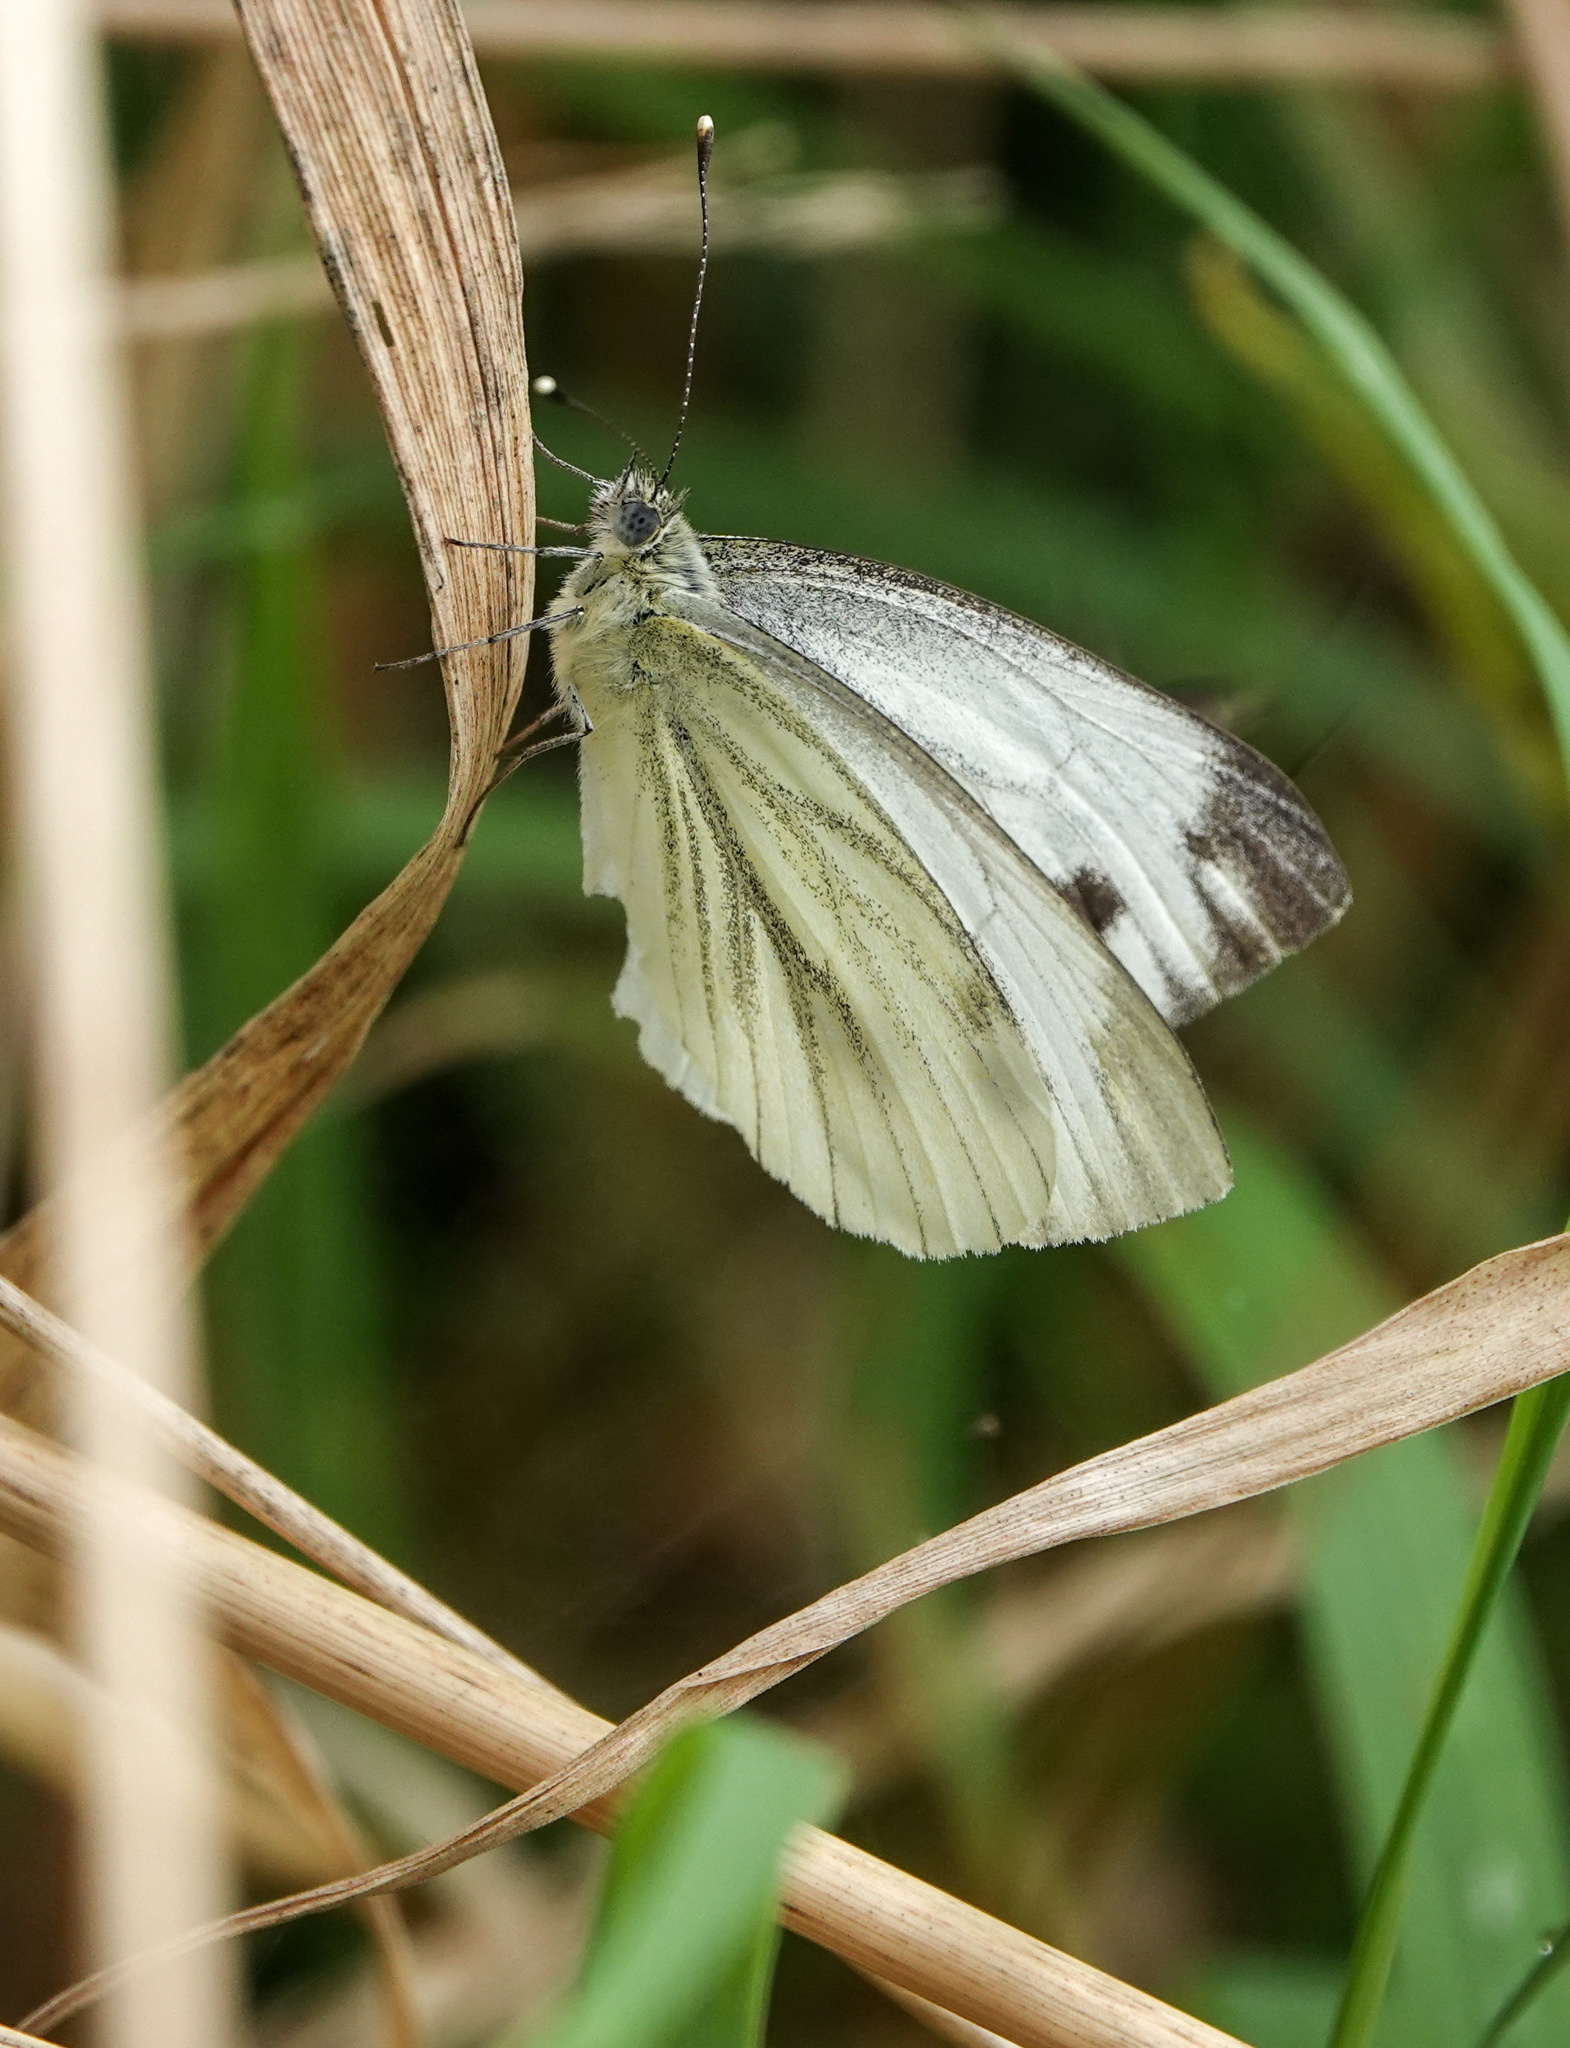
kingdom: Animalia
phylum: Arthropoda
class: Insecta
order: Lepidoptera
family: Pieridae
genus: Pieris
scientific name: Pieris napi
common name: Green-veined white
